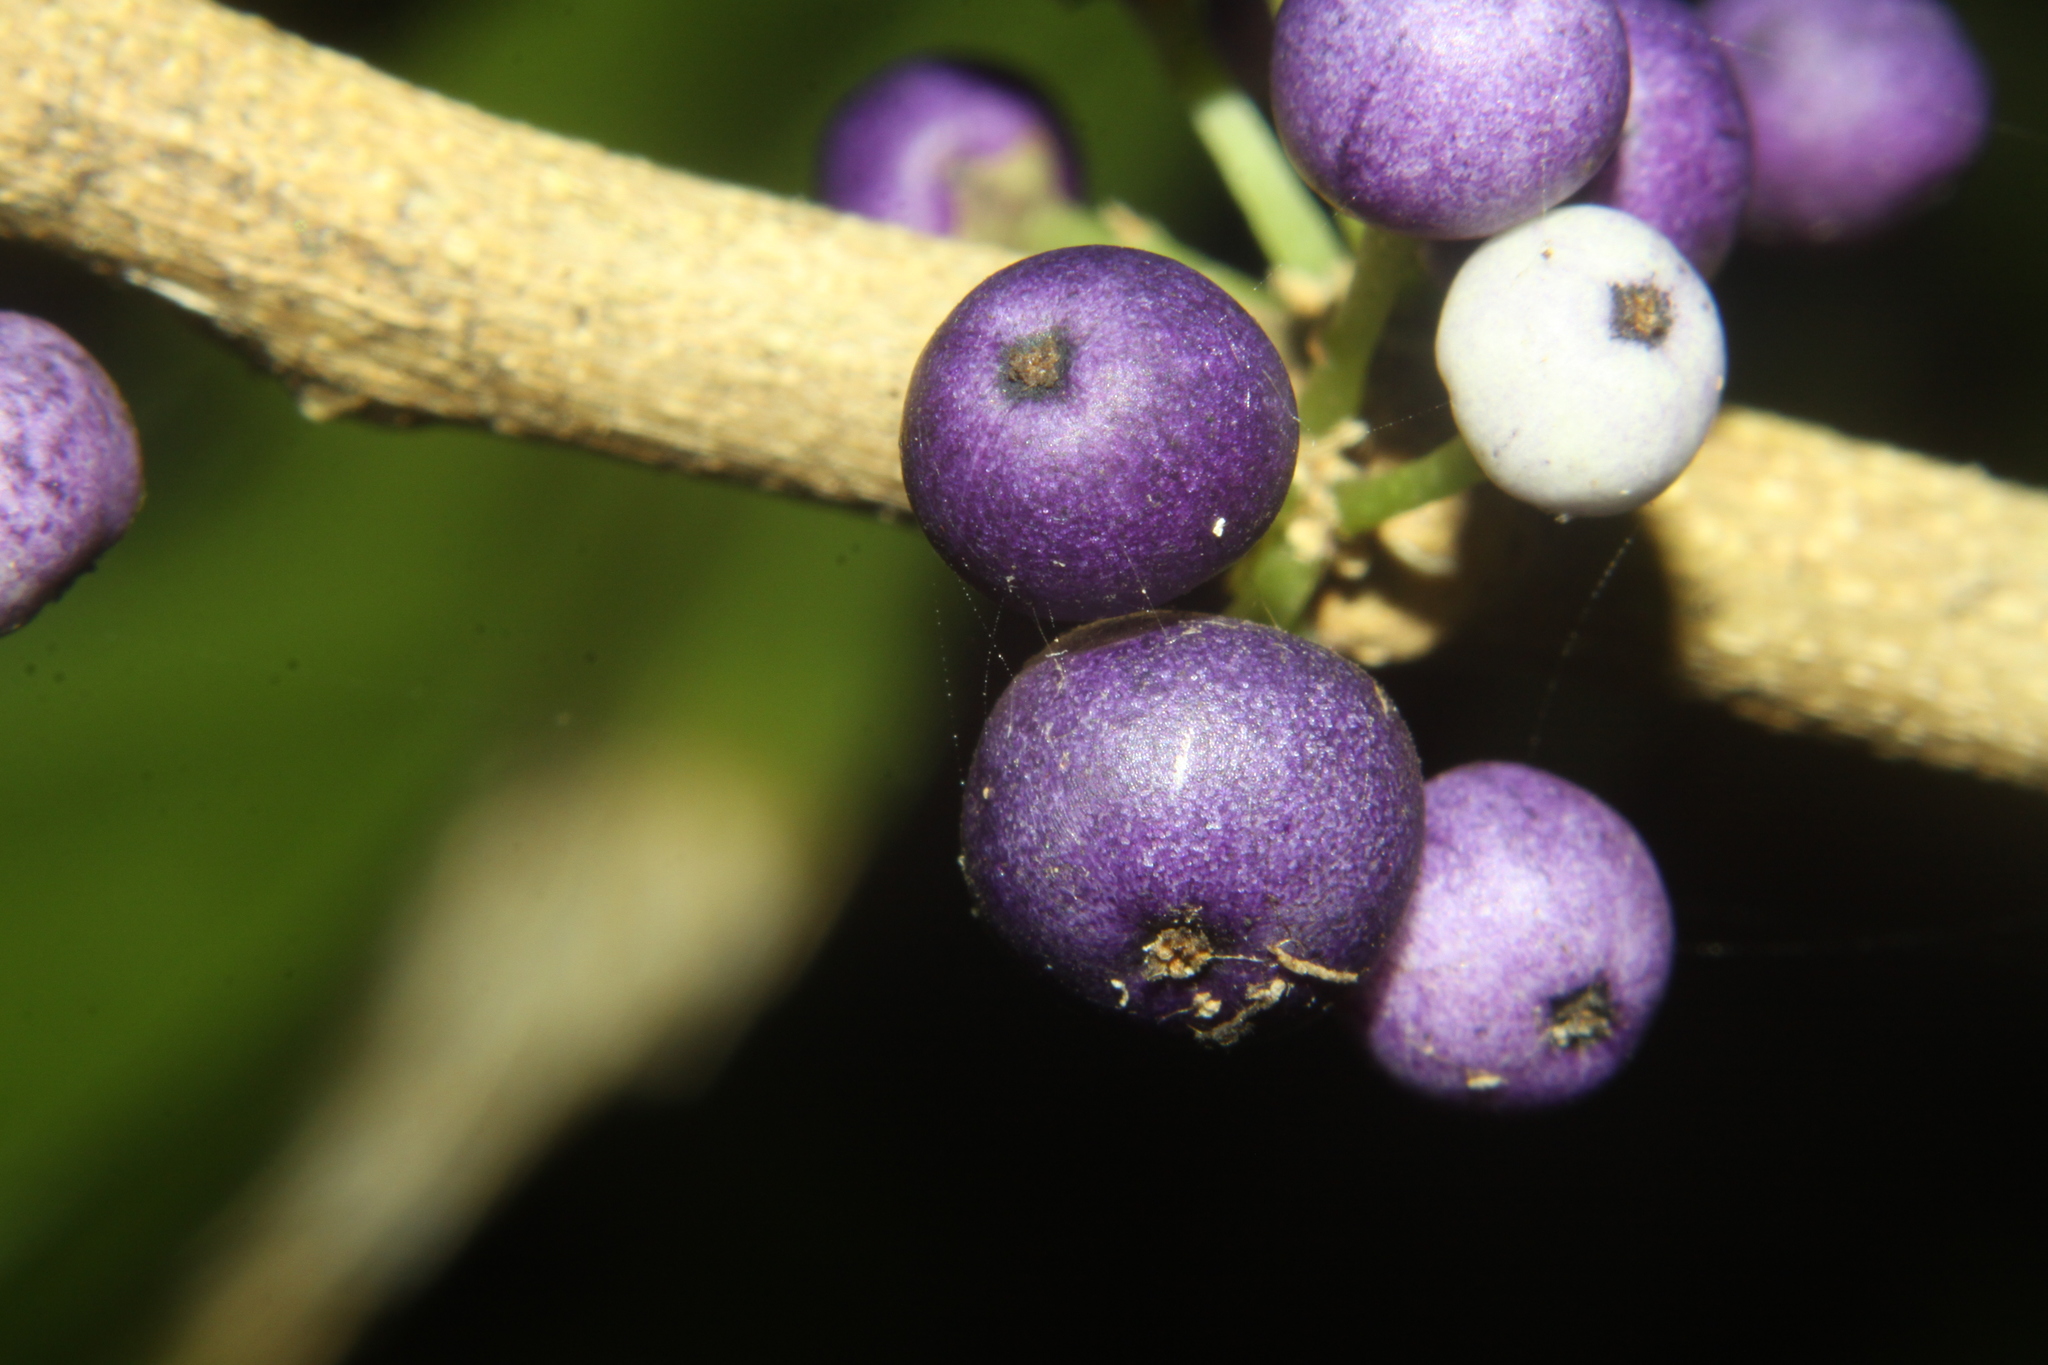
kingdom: Plantae
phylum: Tracheophyta
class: Magnoliopsida
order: Malpighiales
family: Violaceae
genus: Melicytus
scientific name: Melicytus ramiflorus
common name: Mahoe
